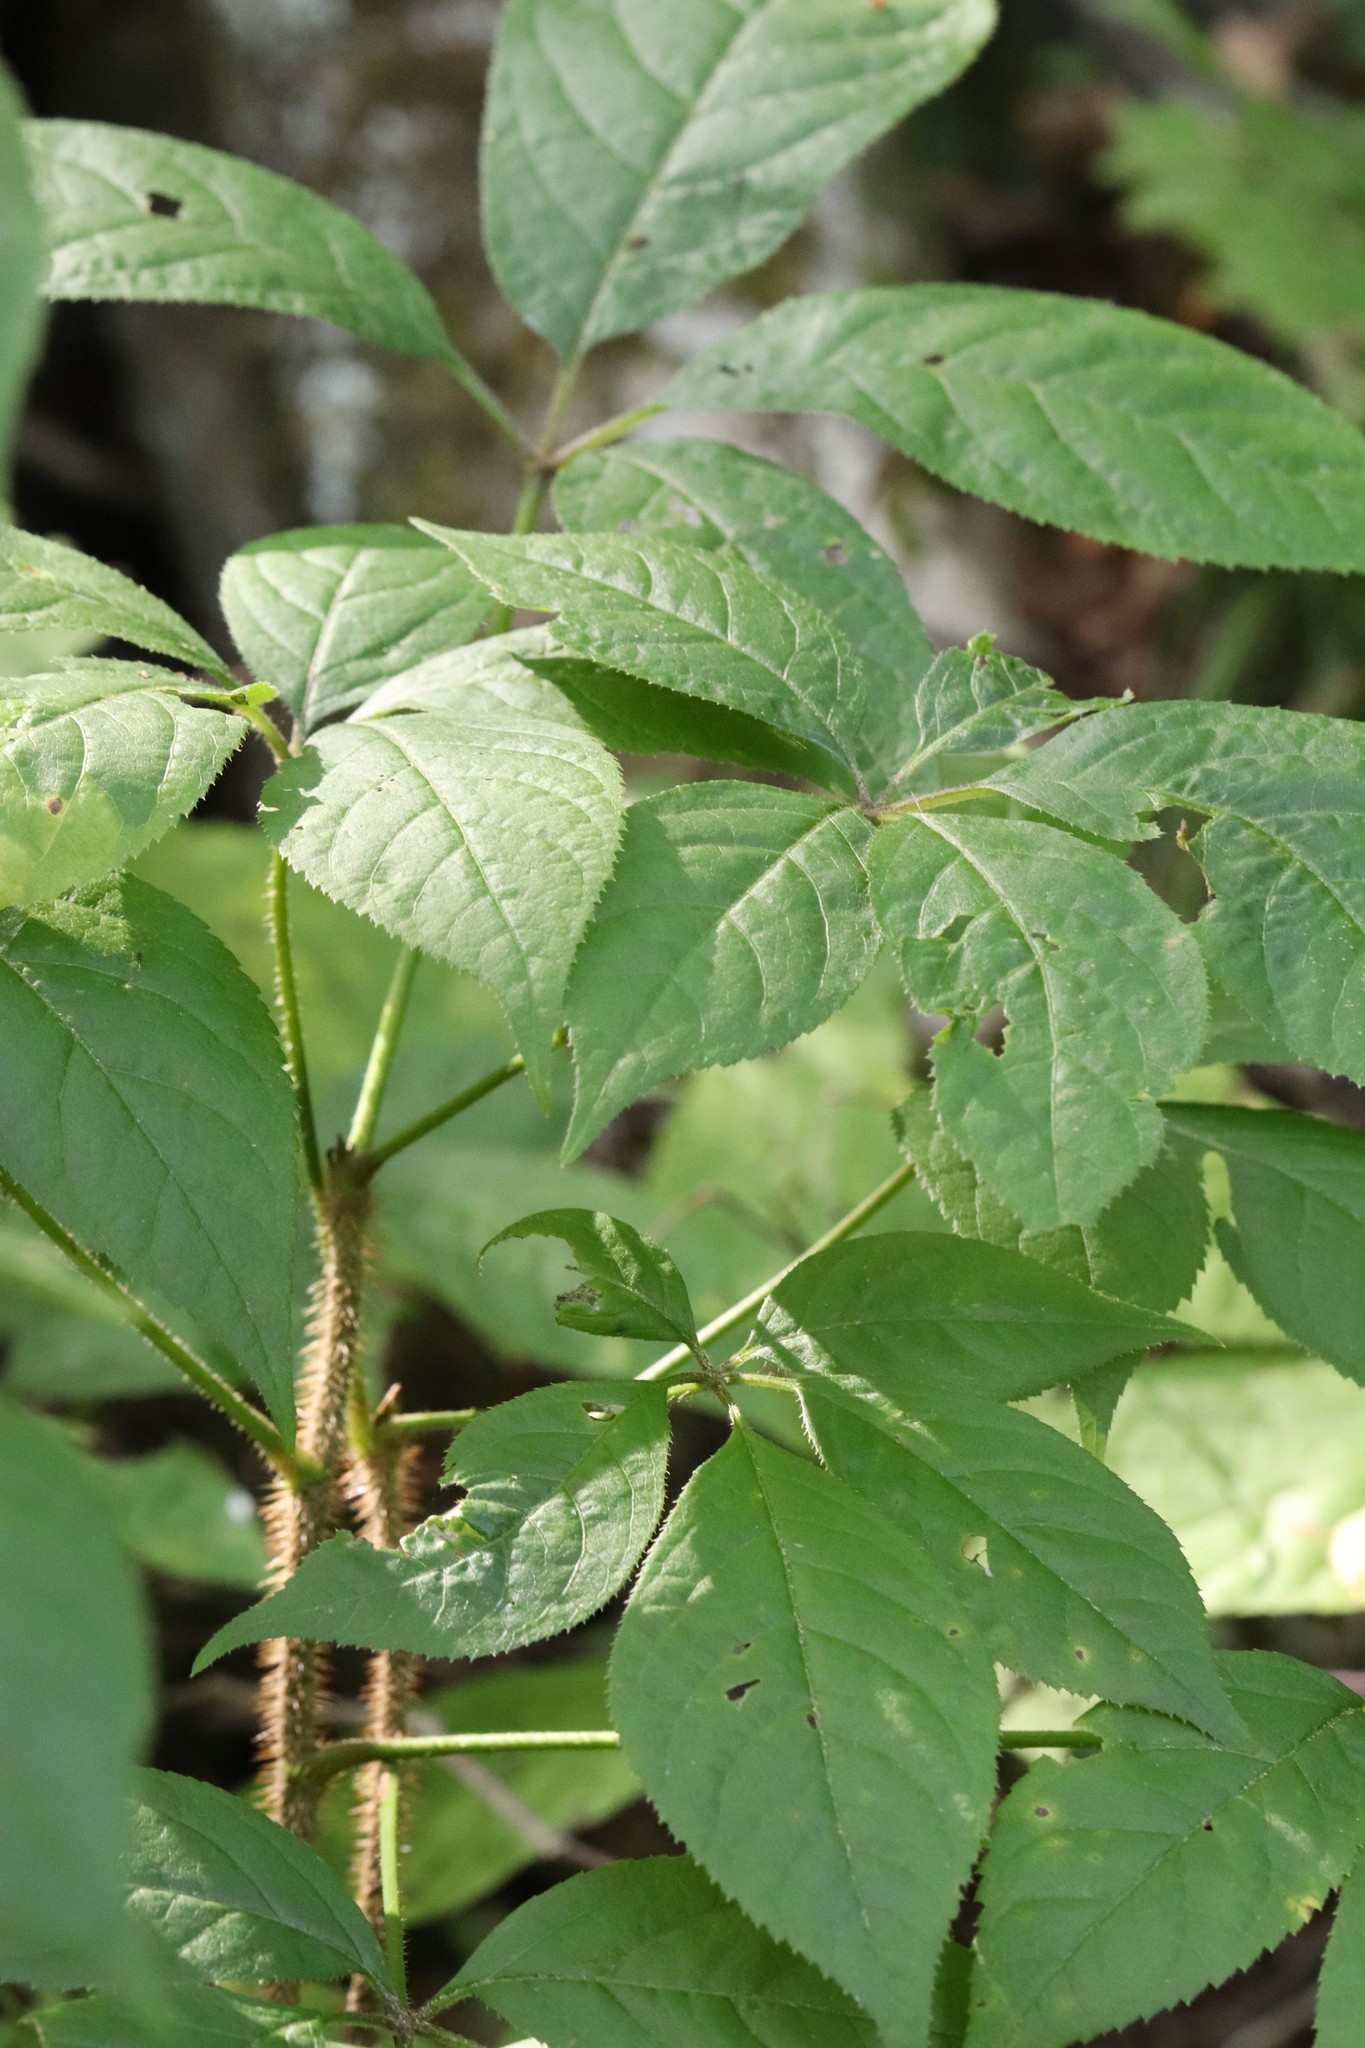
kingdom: Plantae
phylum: Tracheophyta
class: Magnoliopsida
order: Apiales
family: Araliaceae
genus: Eleutherococcus
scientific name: Eleutherococcus senticosus
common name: Siberian-ginseng
